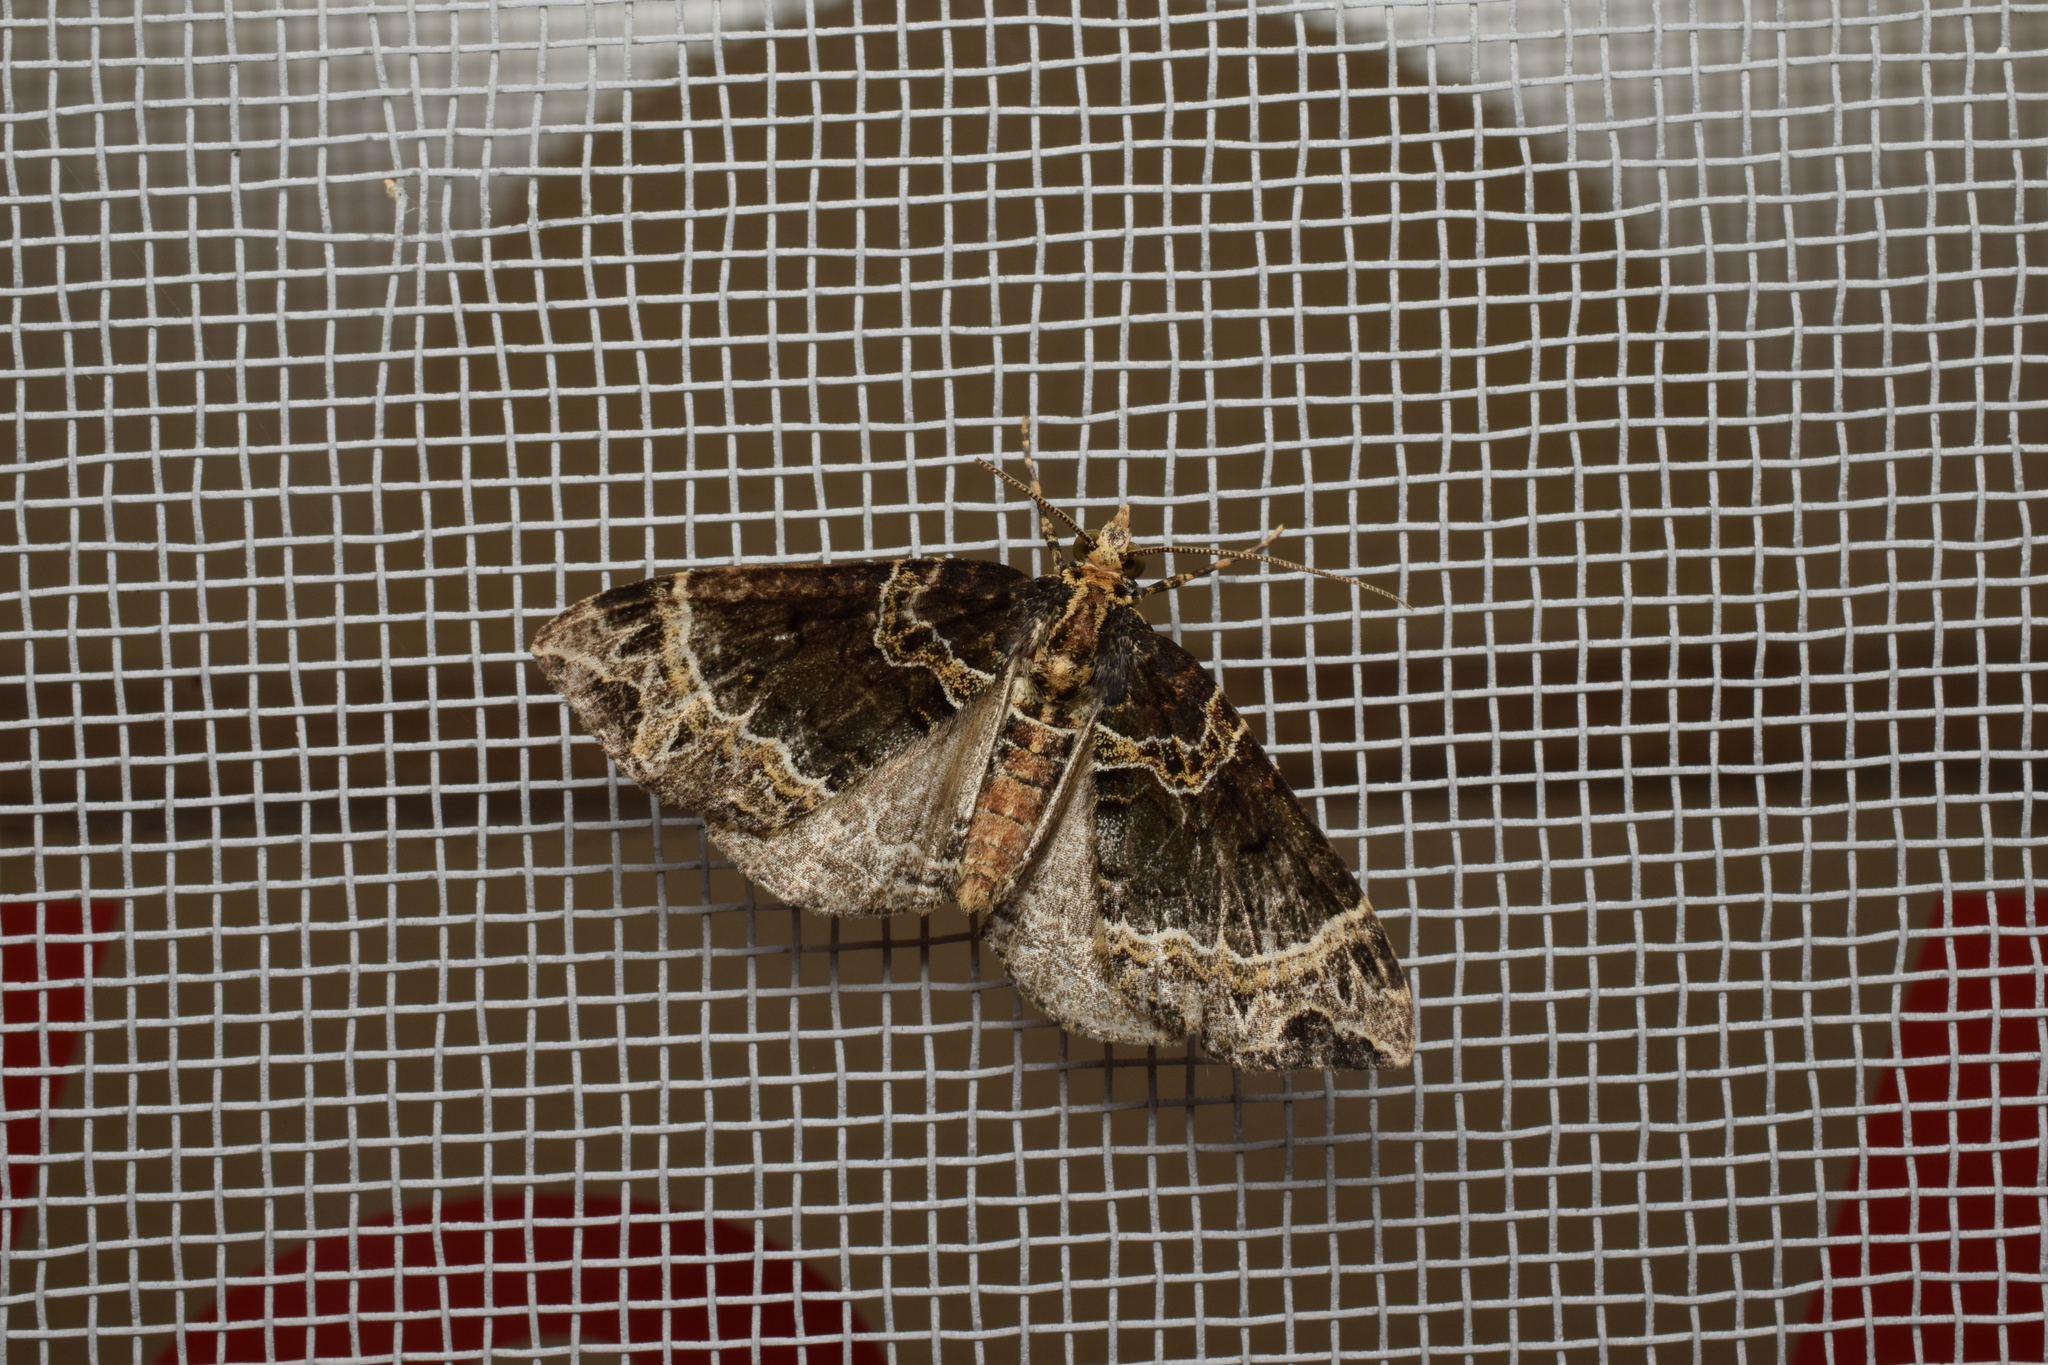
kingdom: Animalia
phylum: Arthropoda
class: Insecta
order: Lepidoptera
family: Geometridae
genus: Ecliptopera
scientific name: Ecliptopera umbrosaria
